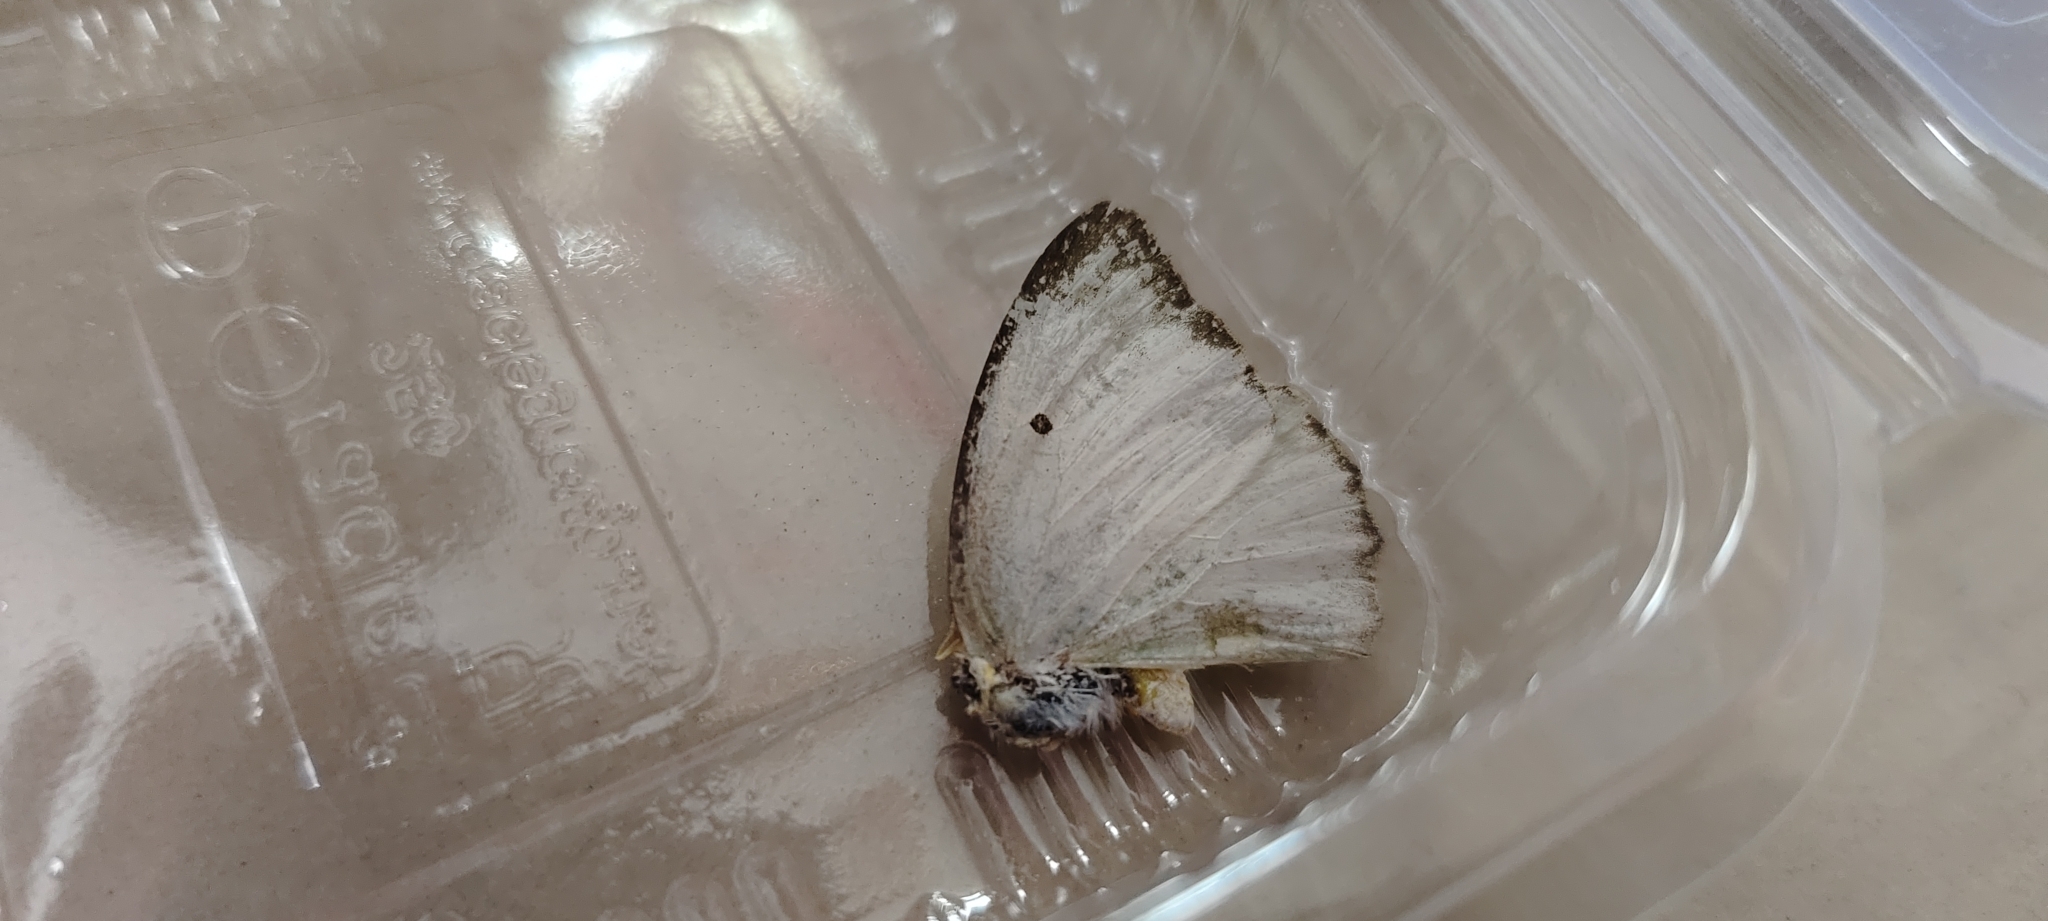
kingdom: Animalia
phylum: Arthropoda
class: Insecta
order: Lepidoptera
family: Pieridae
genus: Catopsilia
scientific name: Catopsilia pyranthe
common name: Mottled emigrant
